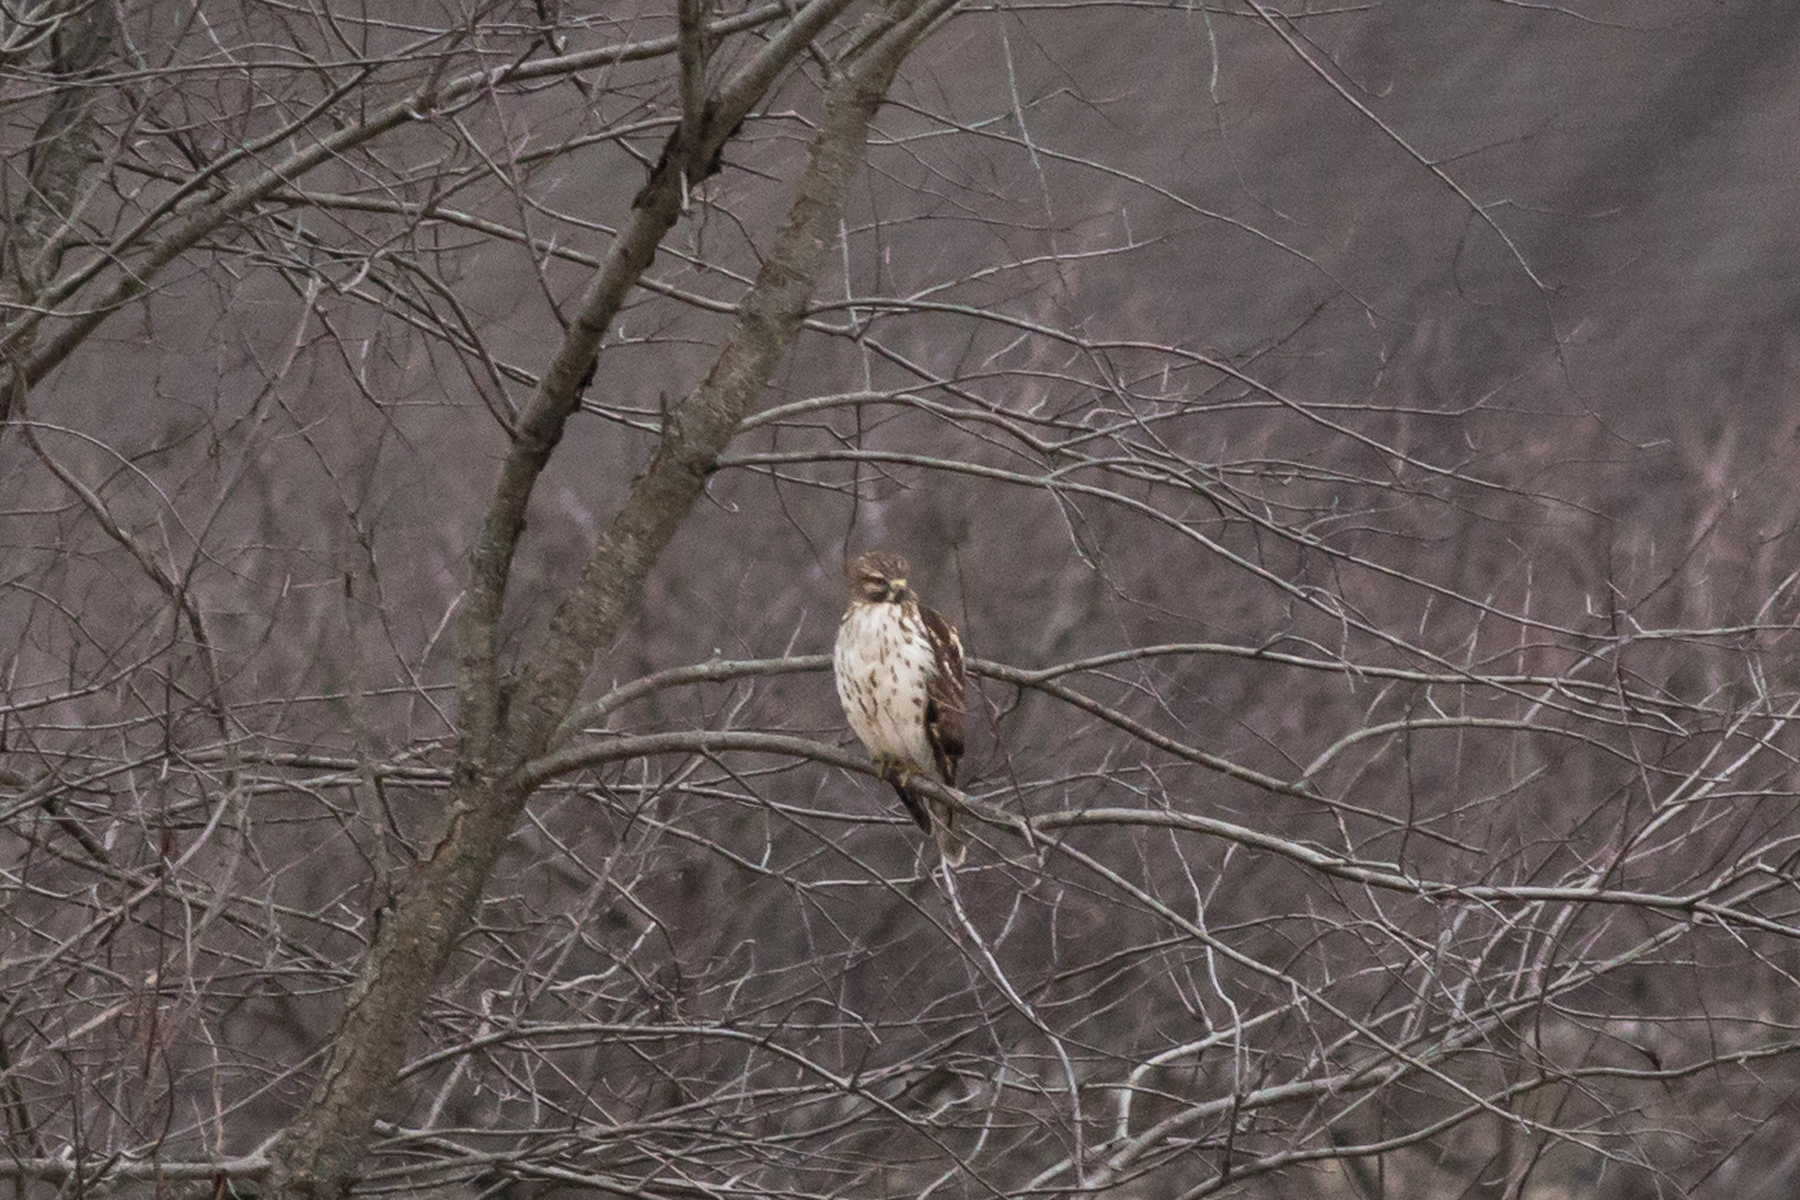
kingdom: Animalia
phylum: Chordata
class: Aves
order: Accipitriformes
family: Accipitridae
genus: Buteo
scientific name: Buteo lineatus
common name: Red-shouldered hawk
